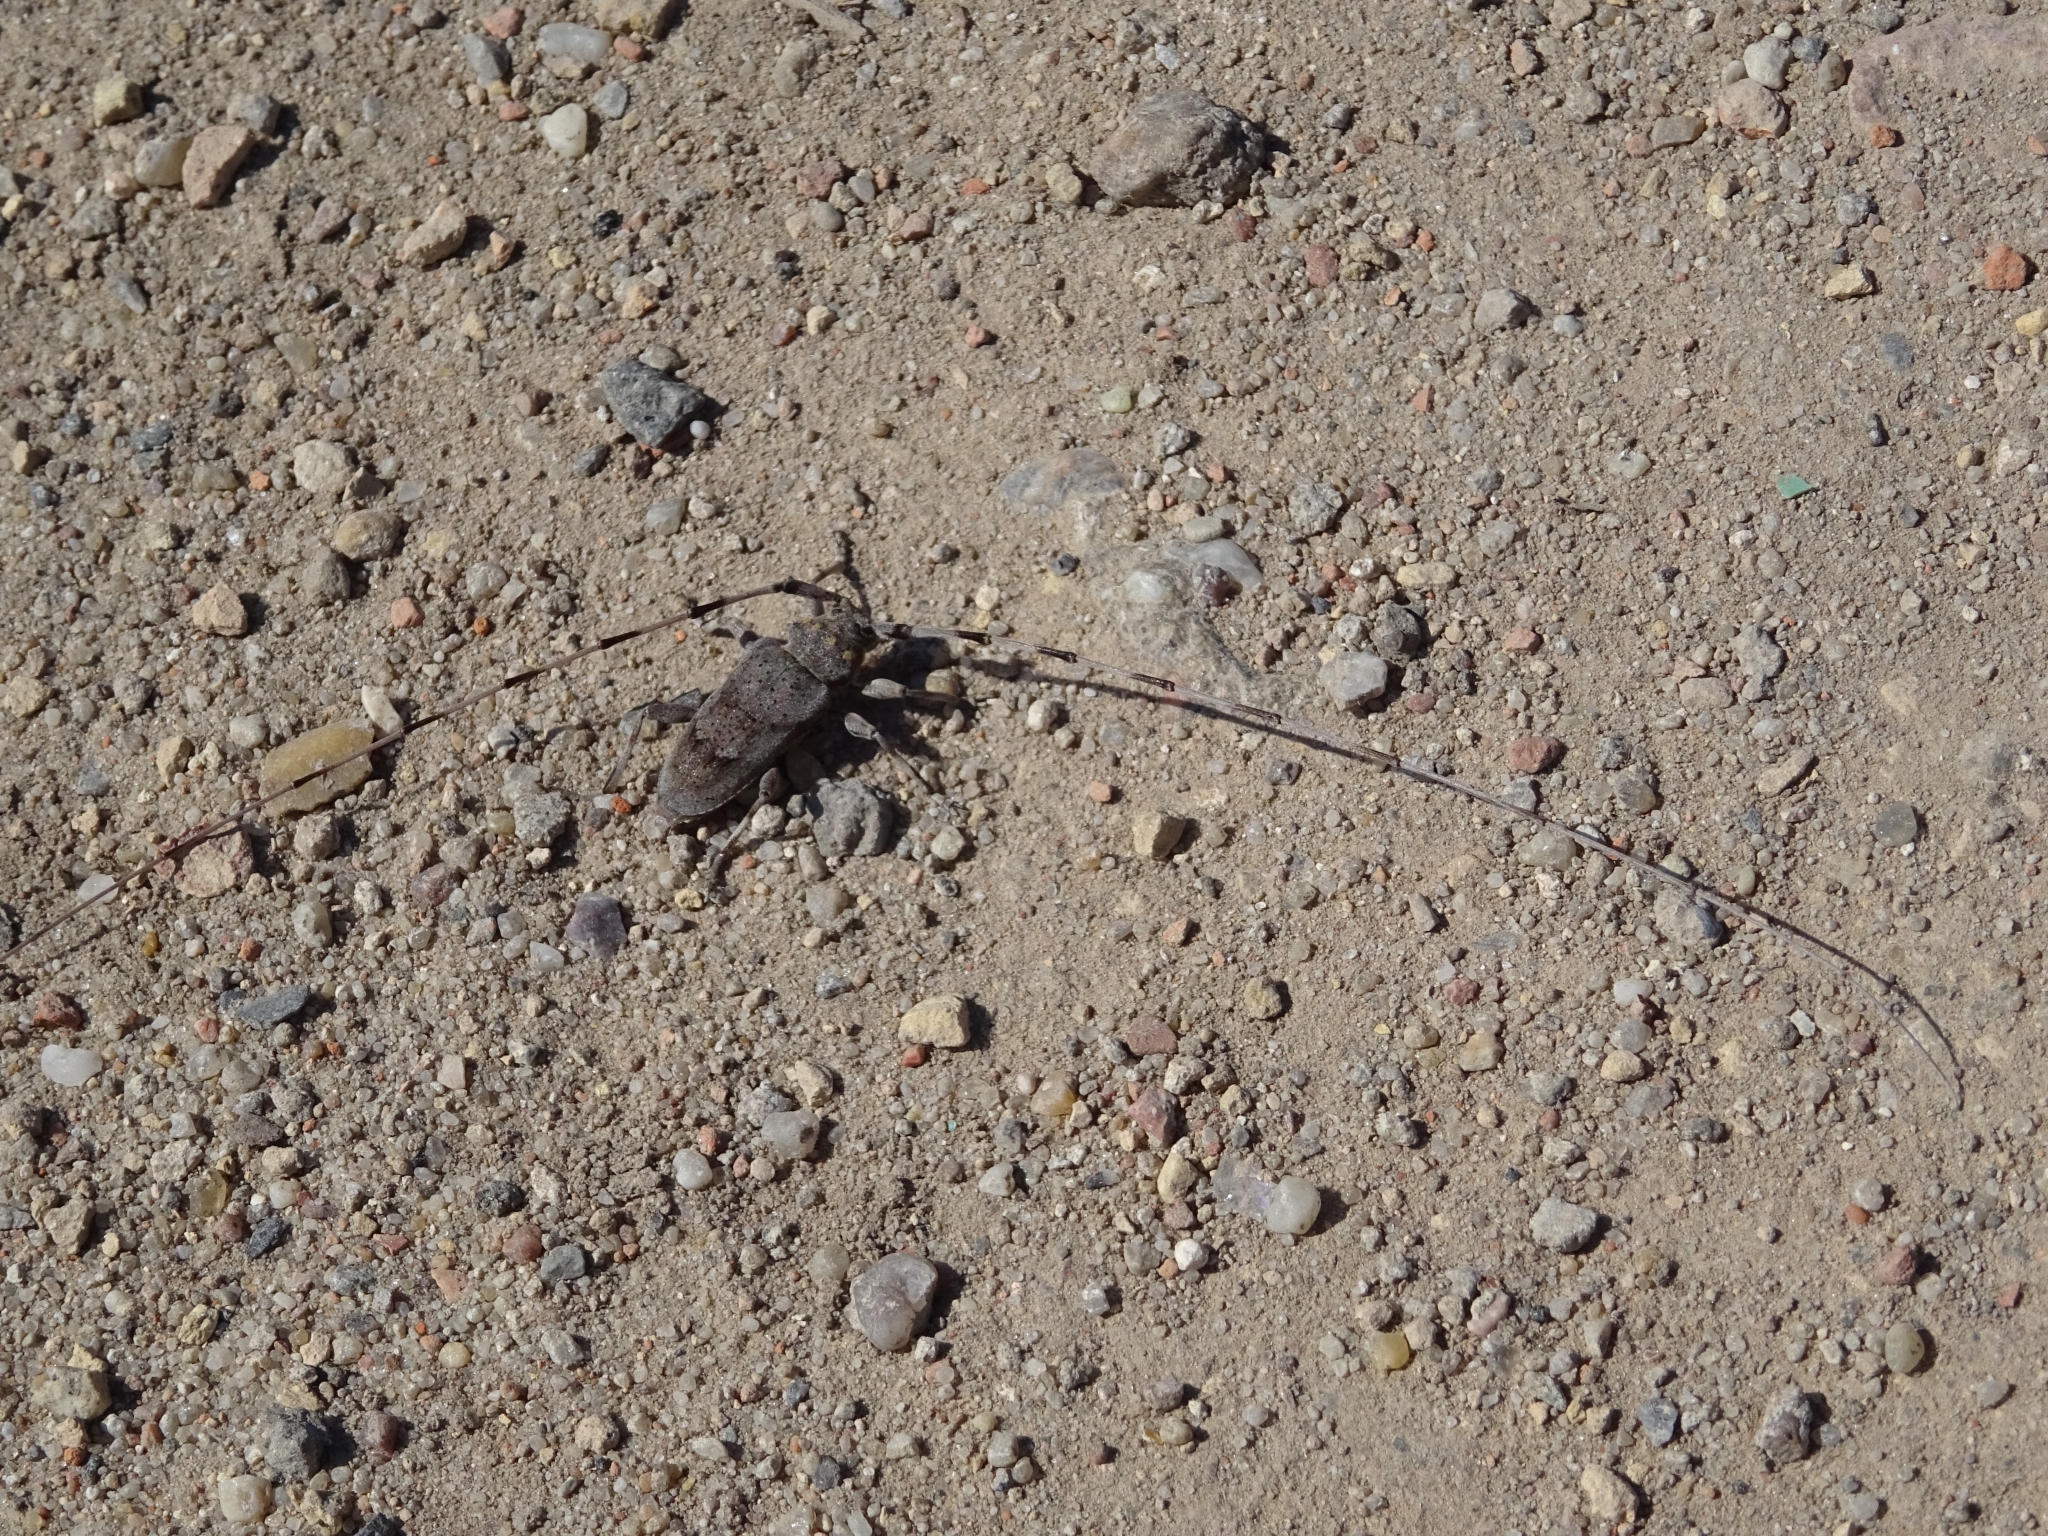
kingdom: Animalia
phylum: Arthropoda
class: Insecta
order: Coleoptera
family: Cerambycidae
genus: Acanthocinus
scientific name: Acanthocinus aedilis
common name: Timberman beetle
